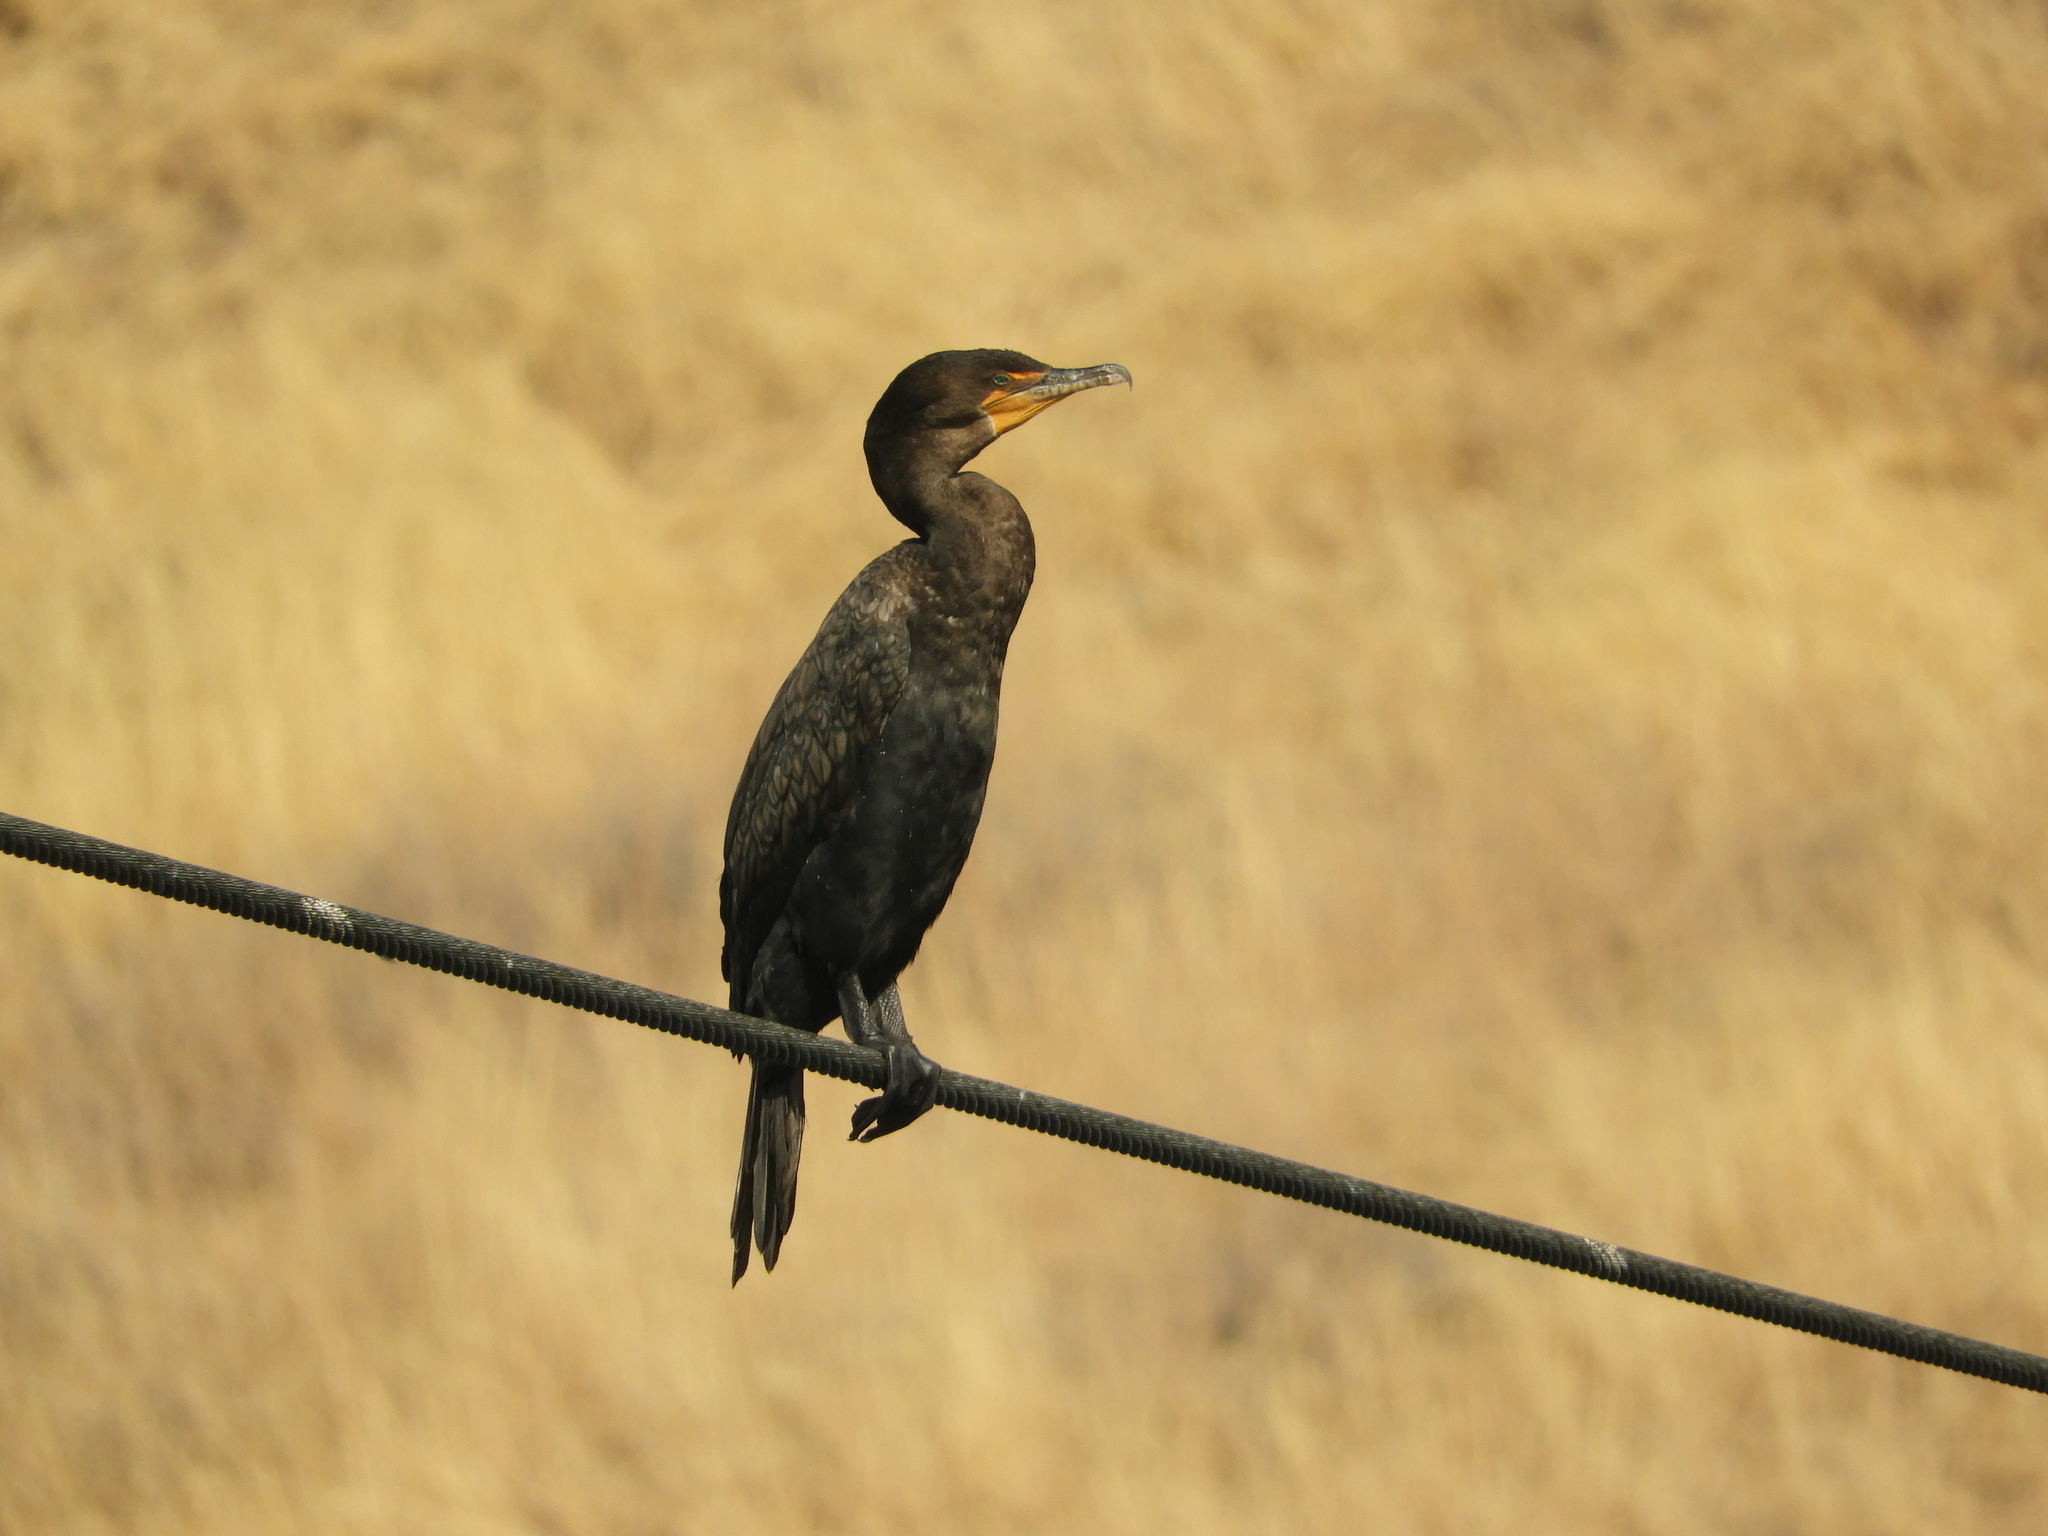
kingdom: Animalia
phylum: Chordata
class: Aves
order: Suliformes
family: Phalacrocoracidae
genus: Phalacrocorax
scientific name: Phalacrocorax auritus
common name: Double-crested cormorant
